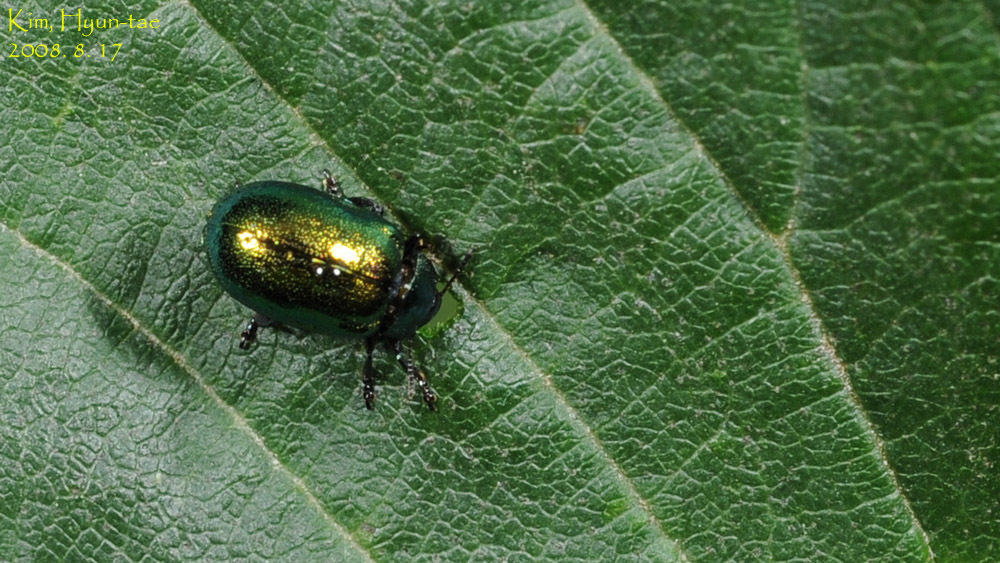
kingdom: Animalia
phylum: Arthropoda
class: Insecta
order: Coleoptera
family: Chrysomelidae
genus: Plagiosterna
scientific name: Plagiosterna aenea
